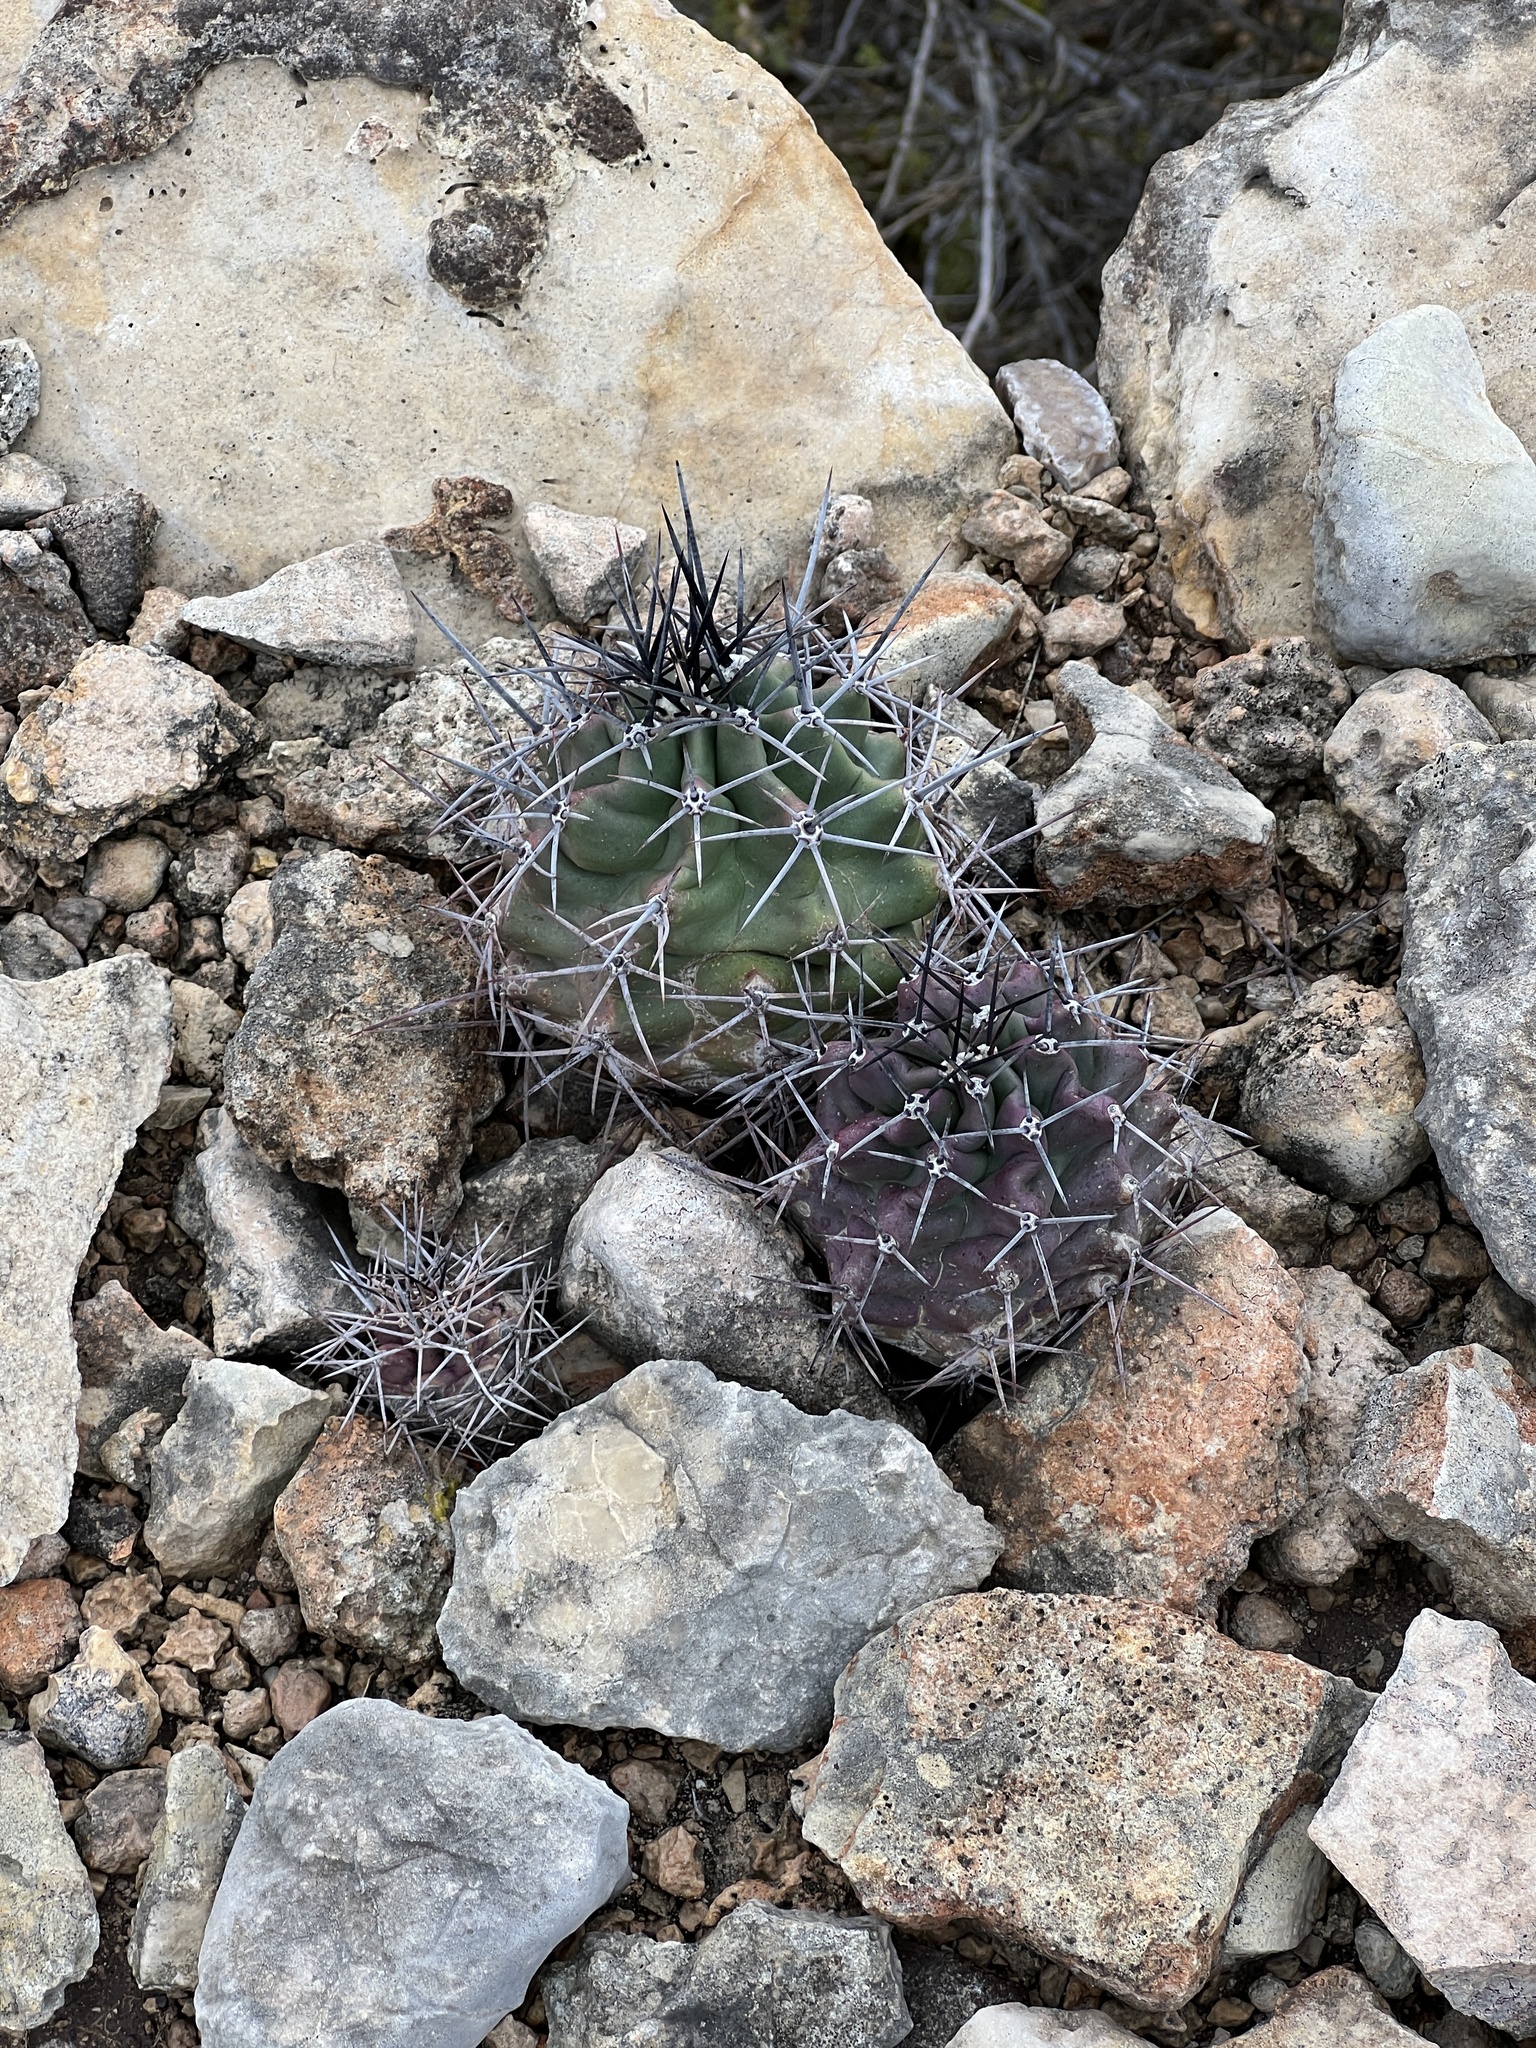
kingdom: Plantae
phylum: Tracheophyta
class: Magnoliopsida
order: Caryophyllales
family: Cactaceae
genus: Echinocereus
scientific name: Echinocereus coccineus
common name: Scarlet hedgehog cactus
